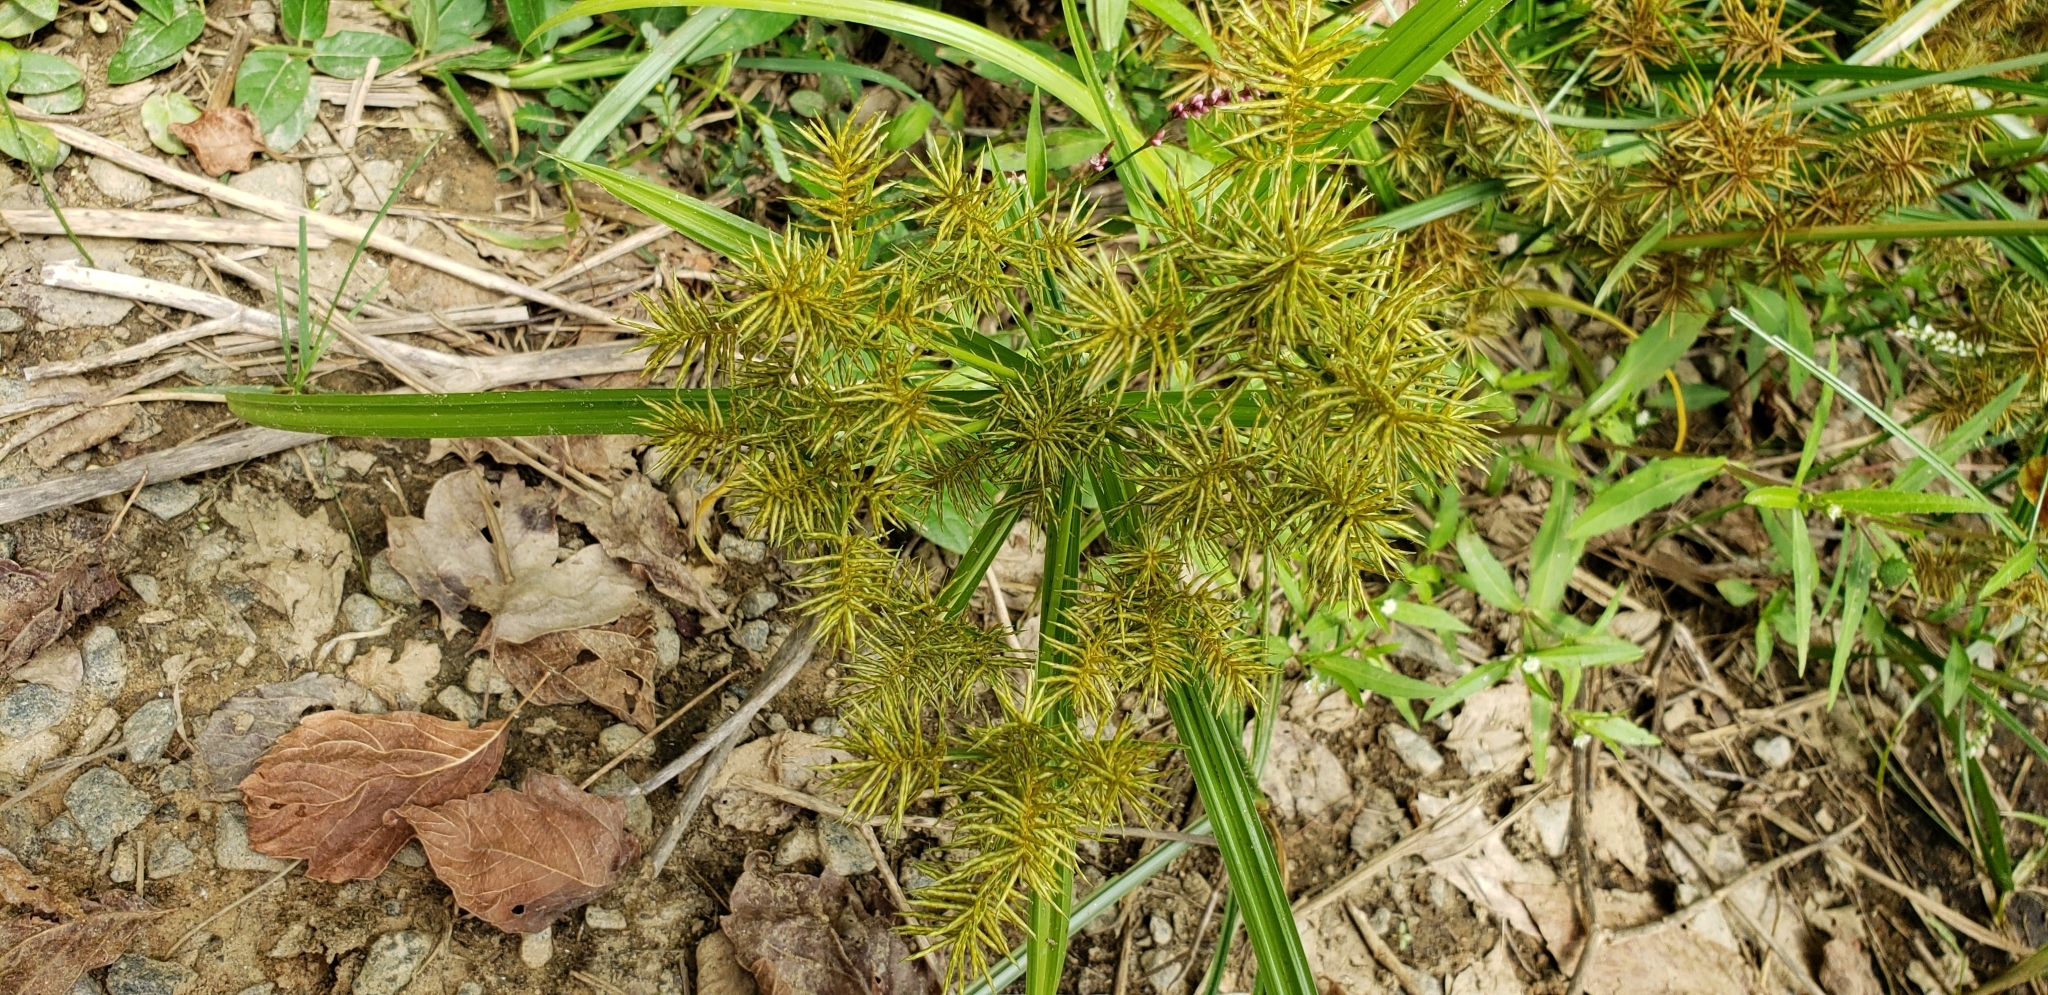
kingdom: Plantae
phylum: Tracheophyta
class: Liliopsida
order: Poales
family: Cyperaceae
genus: Cyperus
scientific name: Cyperus odoratus
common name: Fragrant flatsedge
